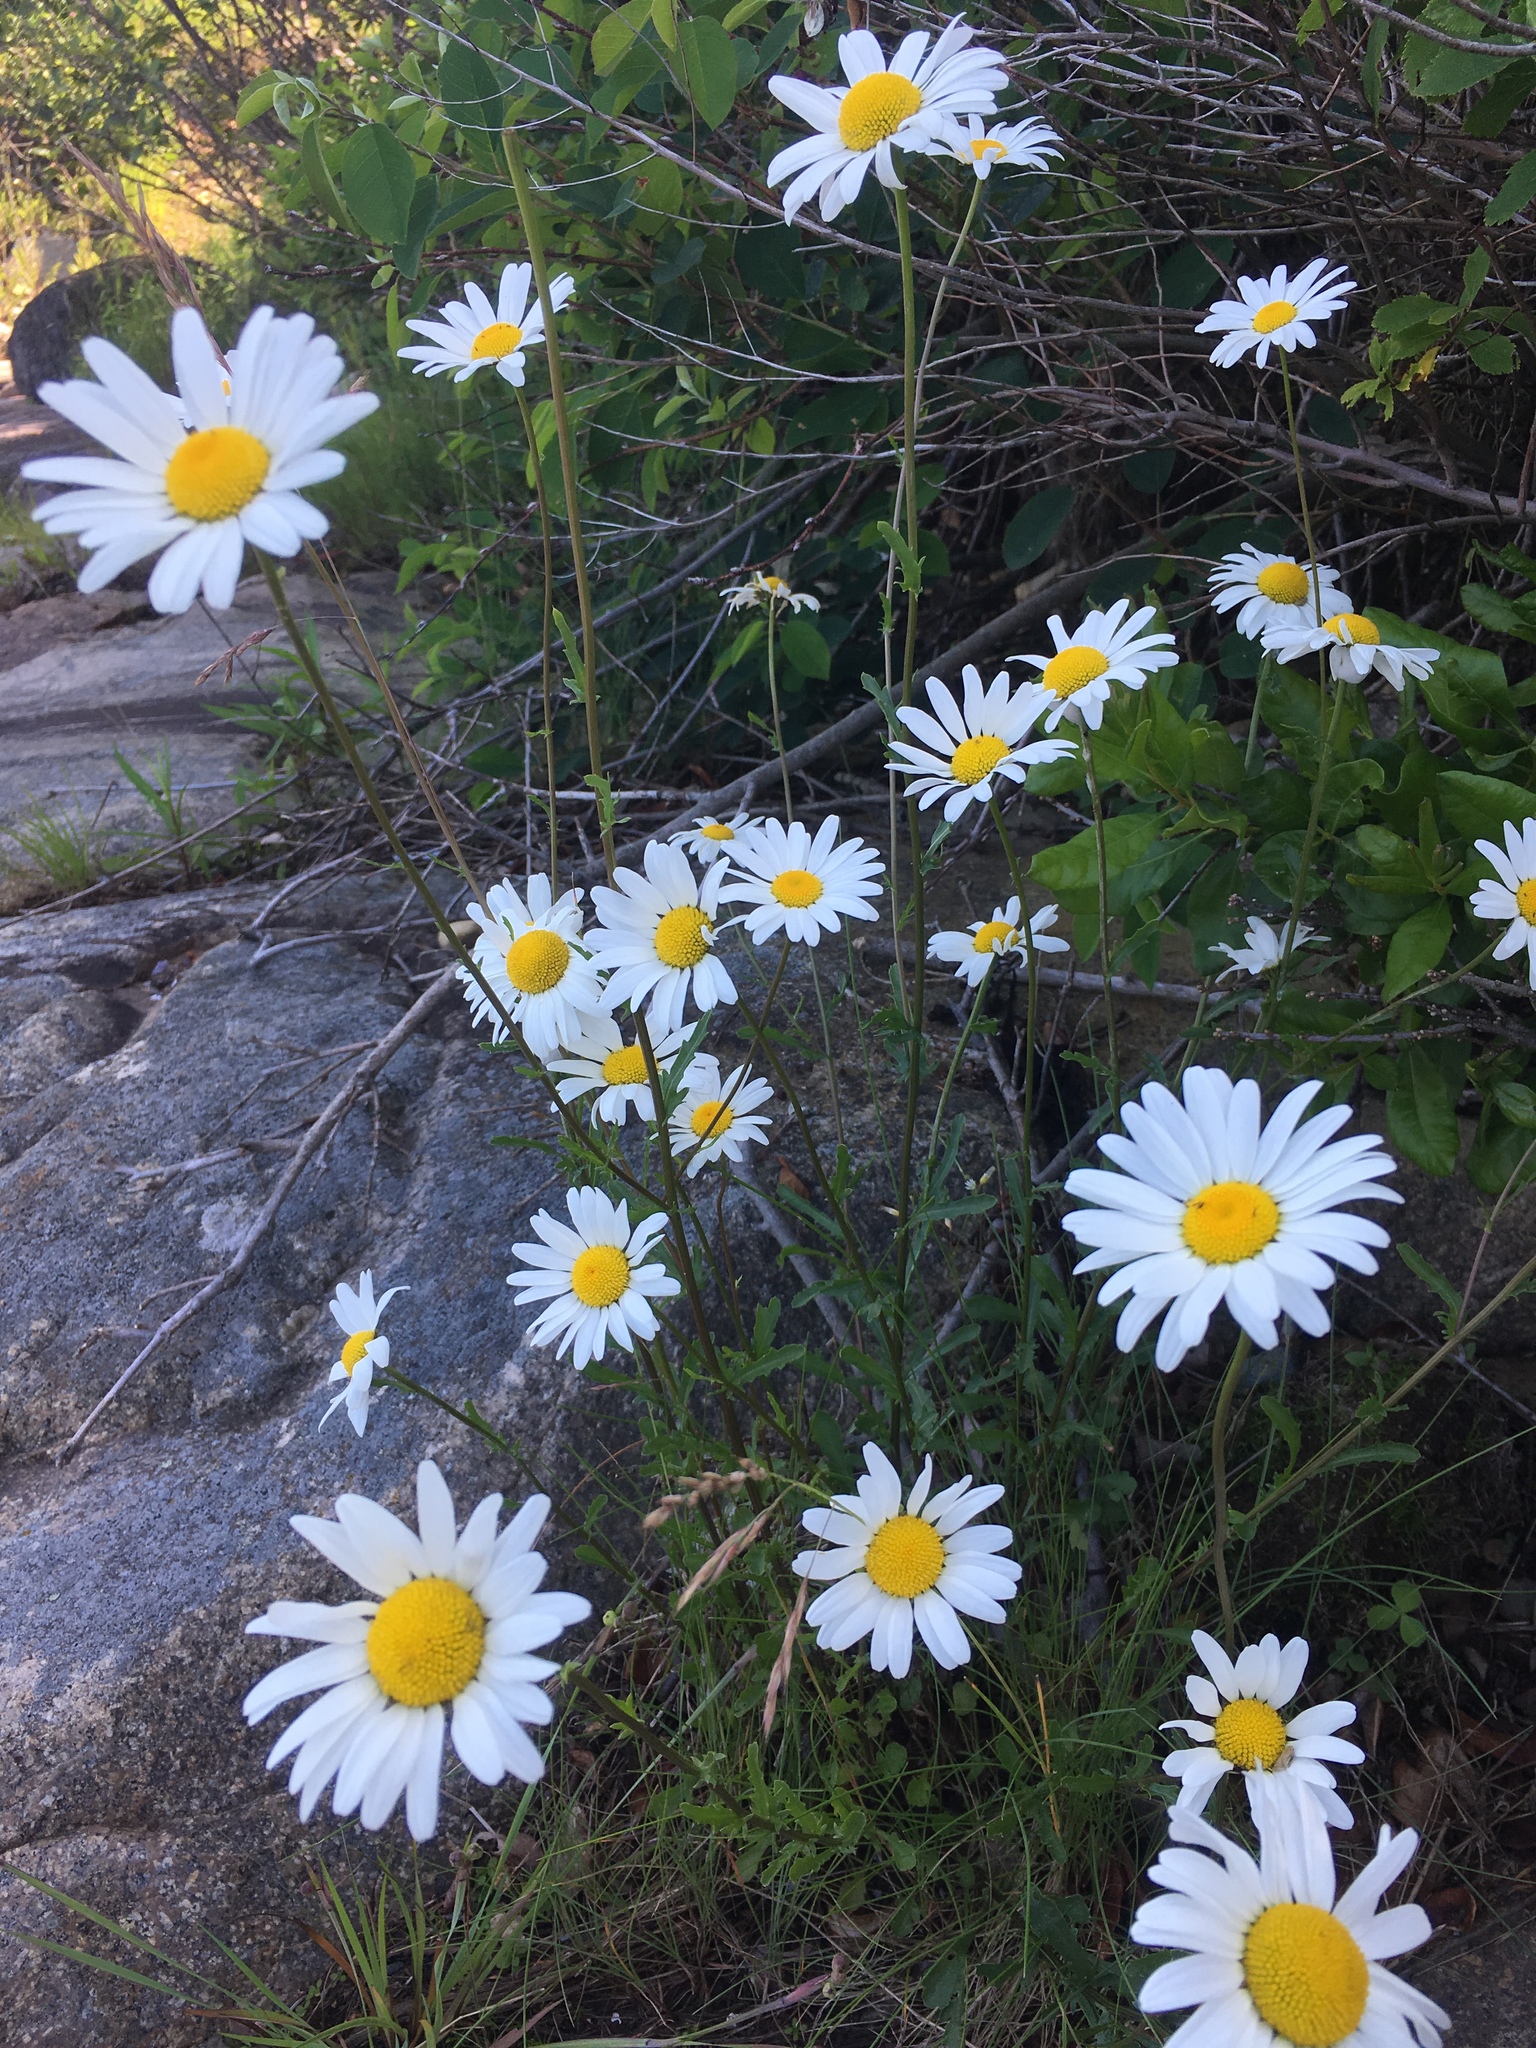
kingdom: Plantae
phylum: Tracheophyta
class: Magnoliopsida
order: Asterales
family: Asteraceae
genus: Leucanthemum
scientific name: Leucanthemum vulgare
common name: Oxeye daisy
